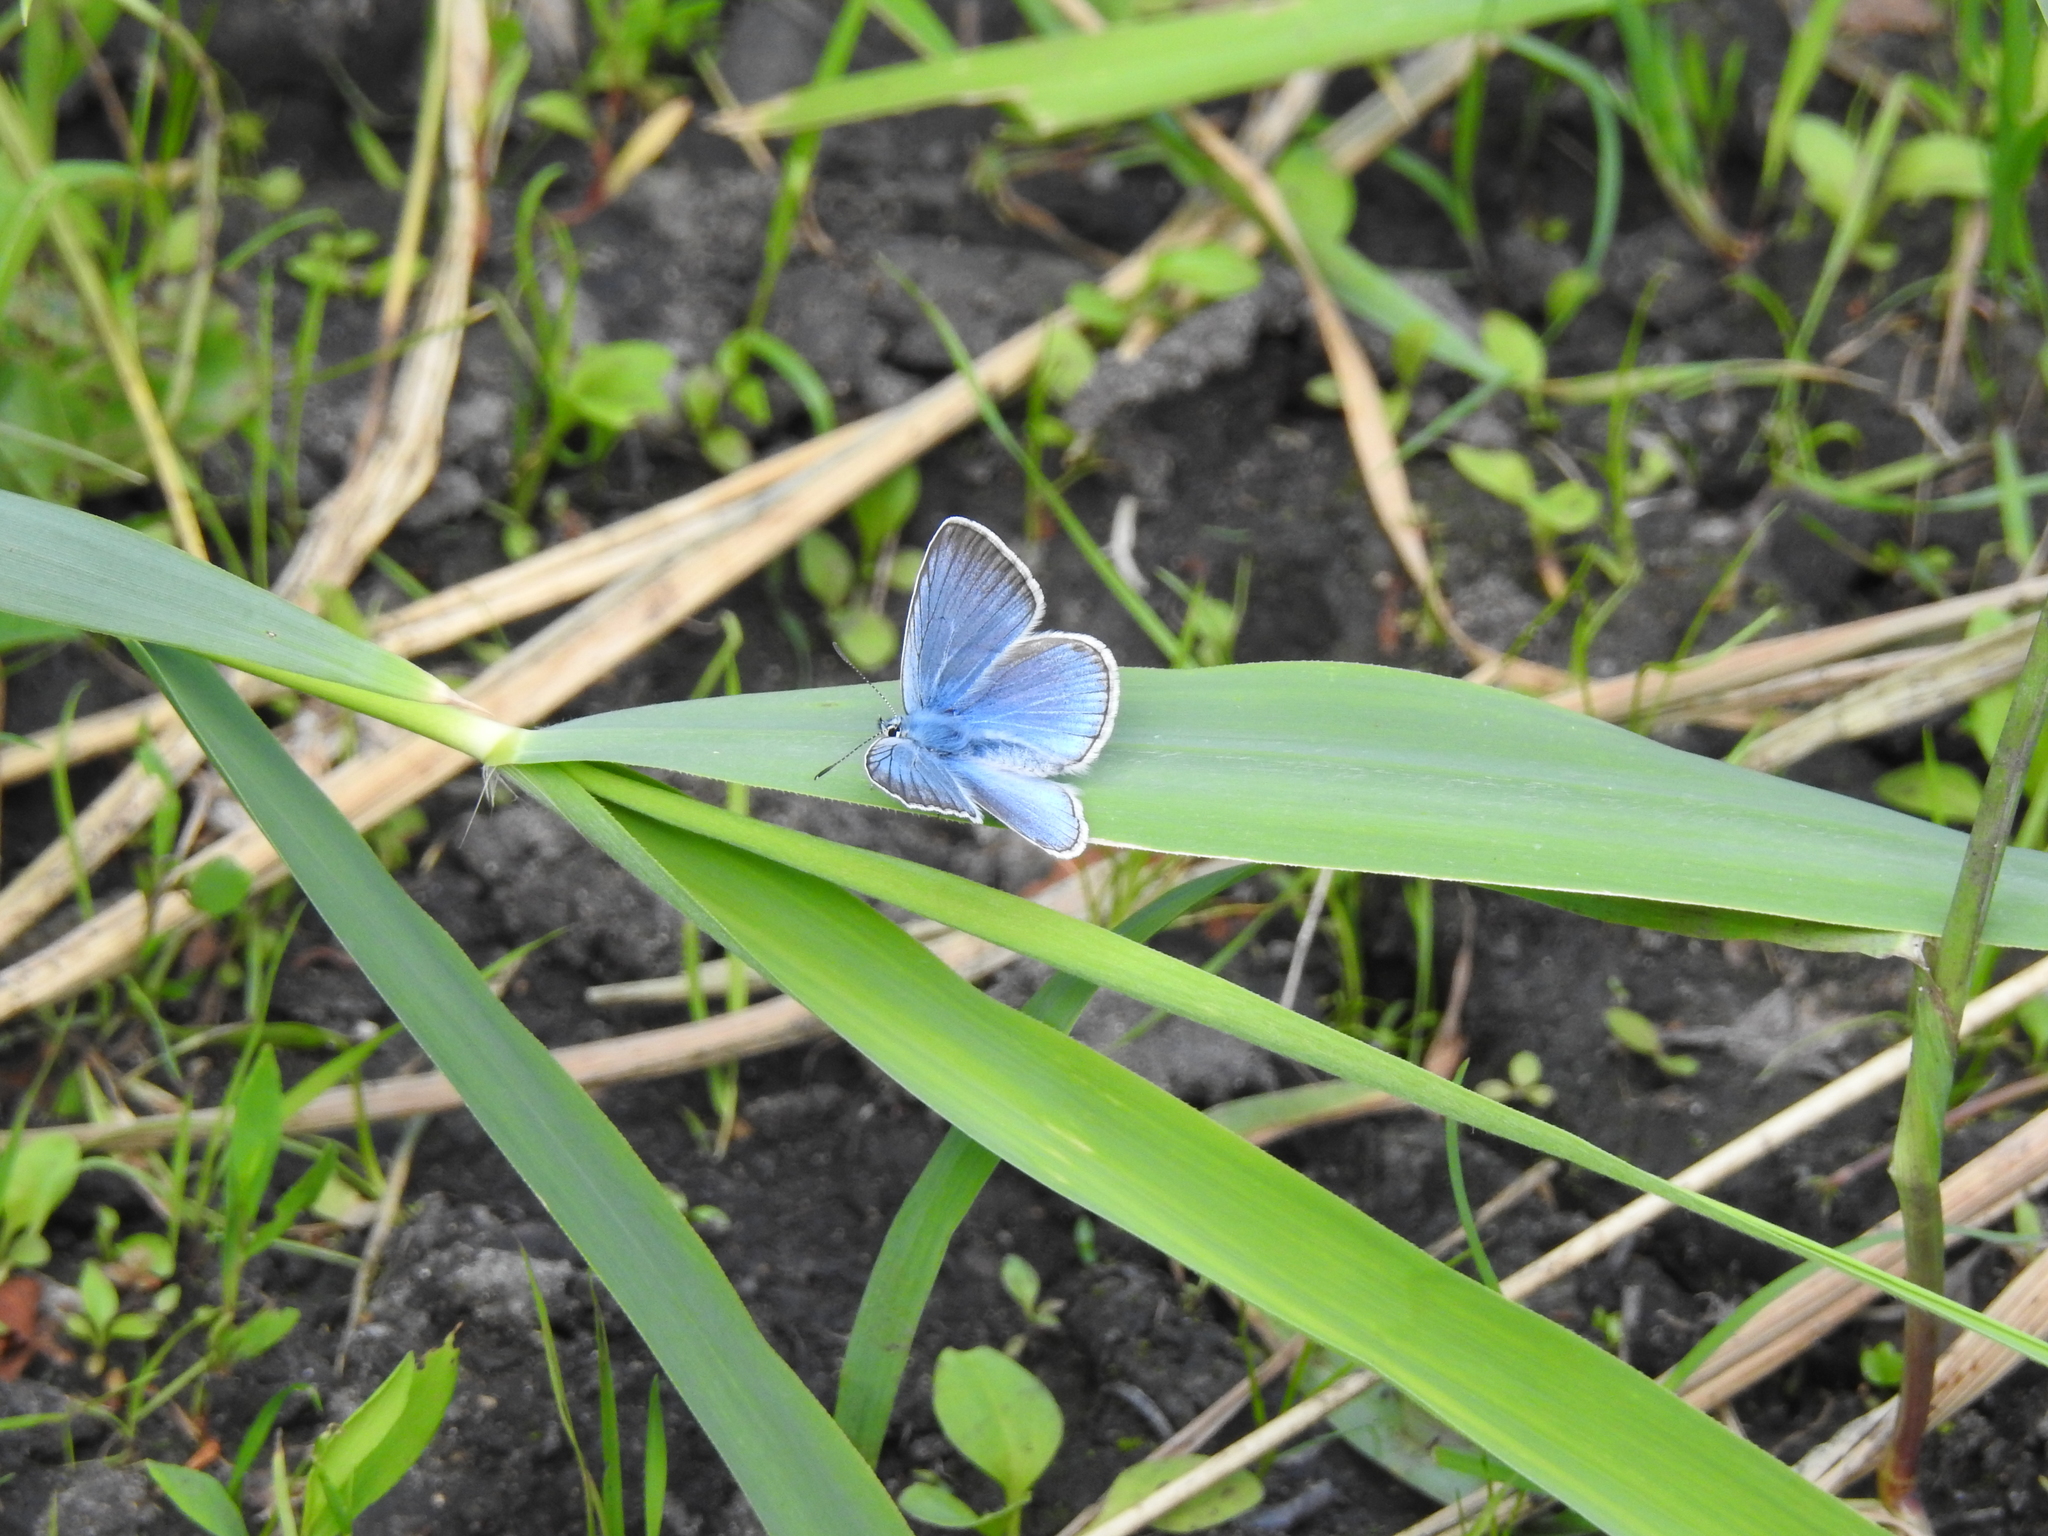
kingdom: Animalia
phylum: Arthropoda
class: Insecta
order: Lepidoptera
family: Lycaenidae
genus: Plebejus
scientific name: Plebejus amanda
